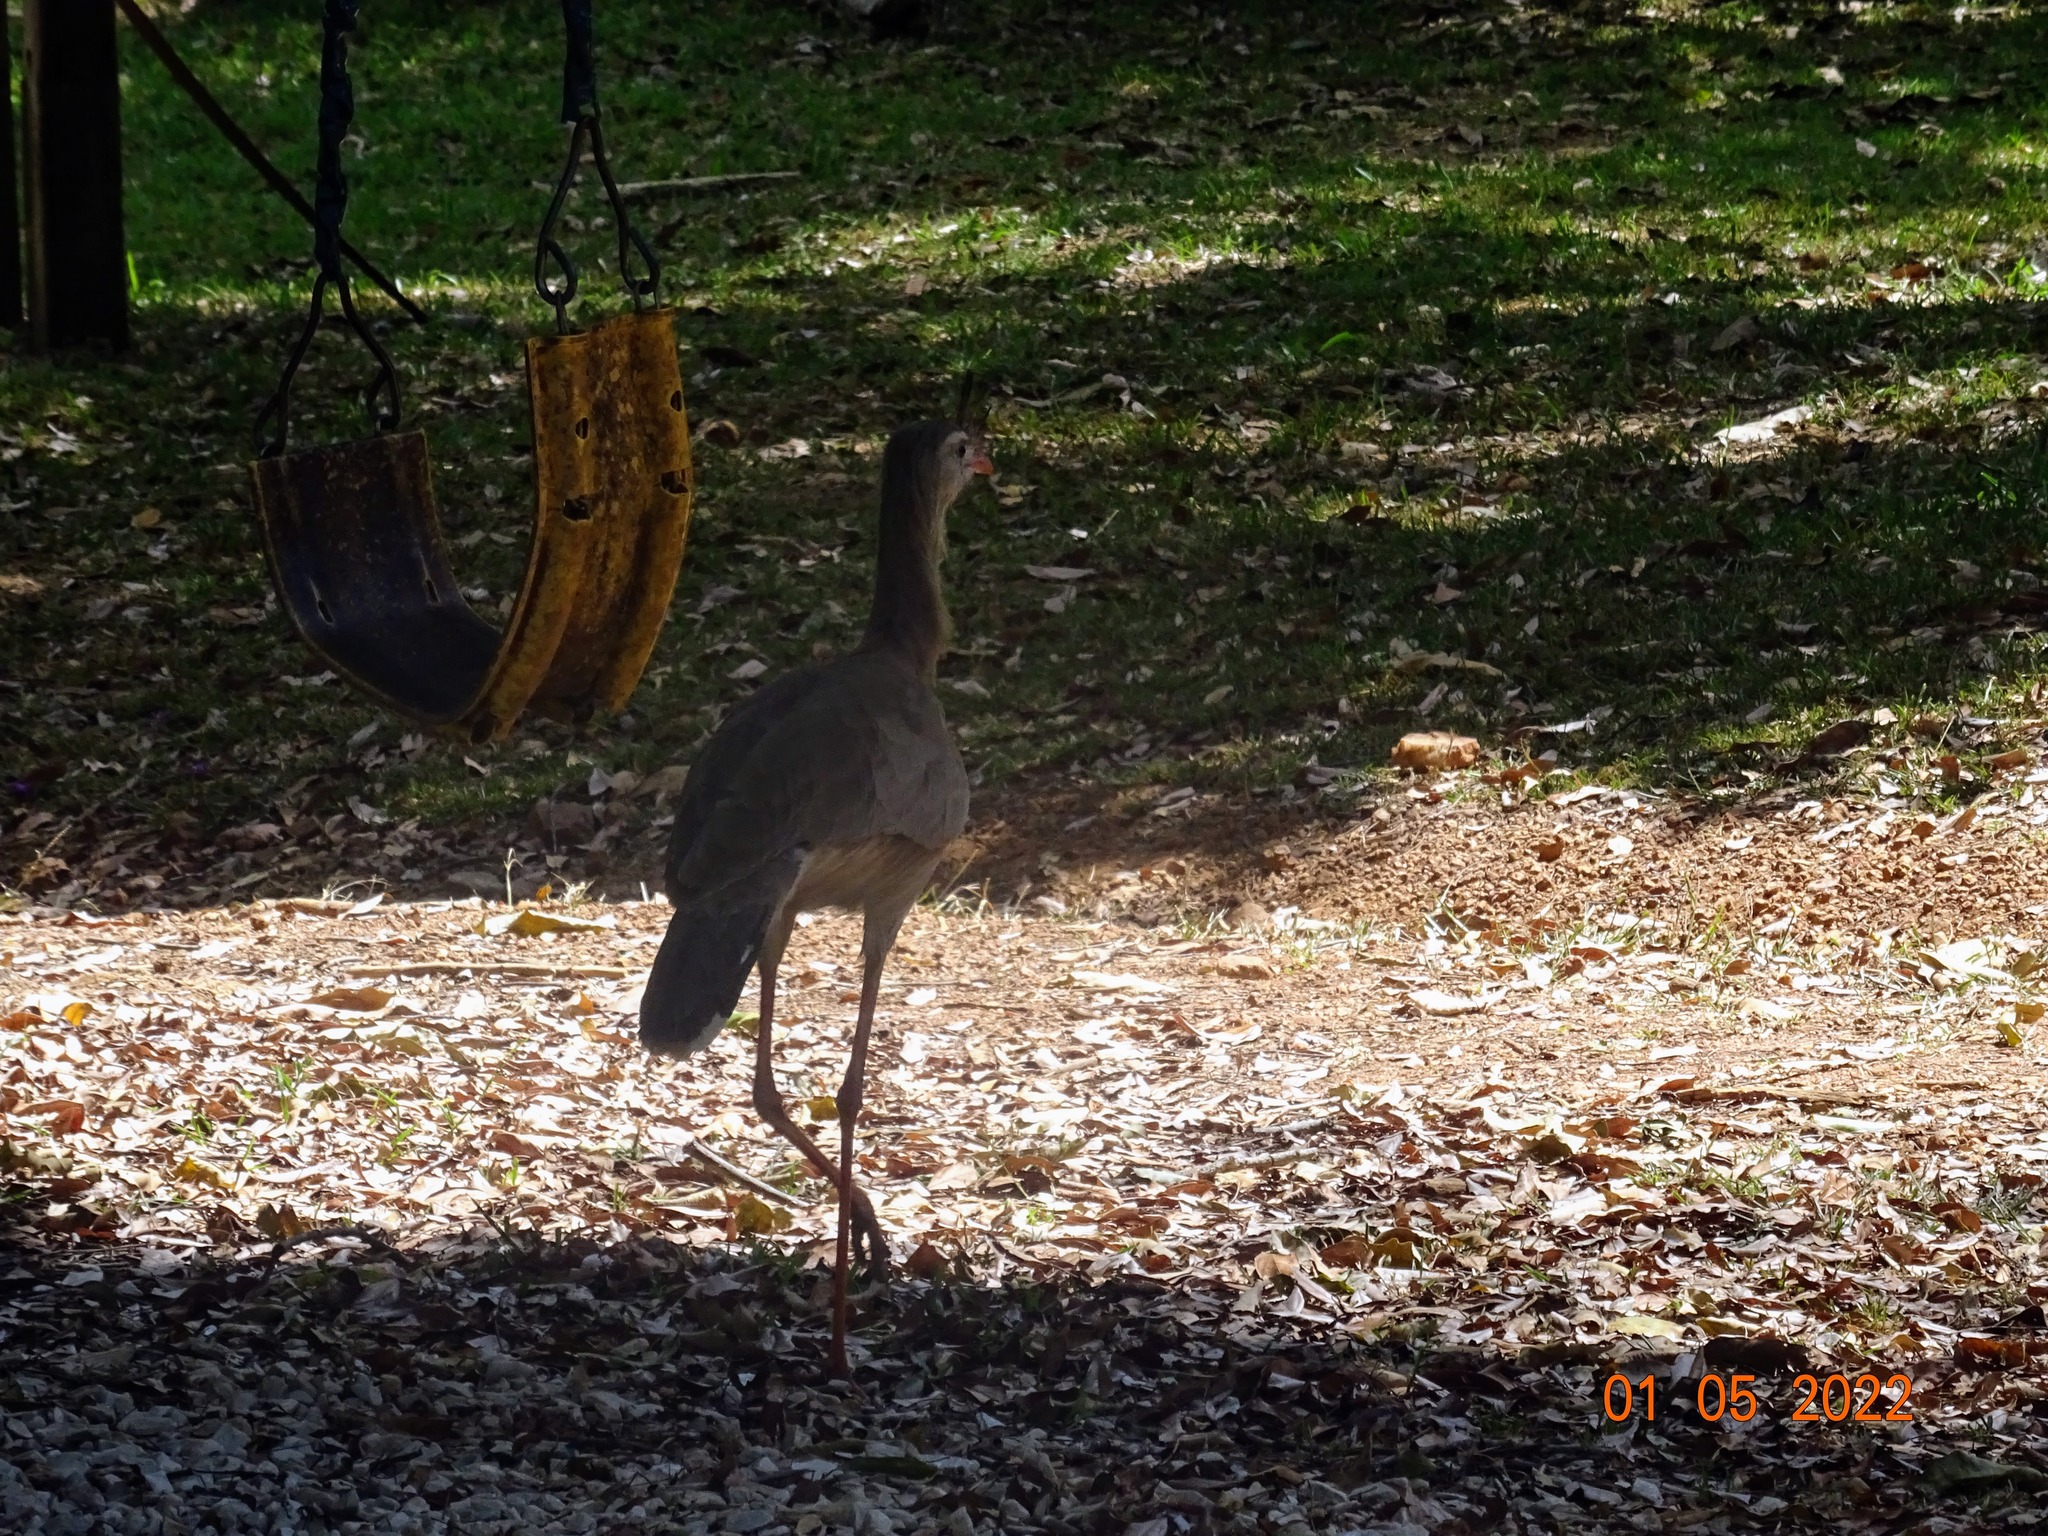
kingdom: Animalia
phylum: Chordata
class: Aves
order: Cariamiformes
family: Cariamidae
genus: Cariama
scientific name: Cariama cristata
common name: Red-legged seriema
